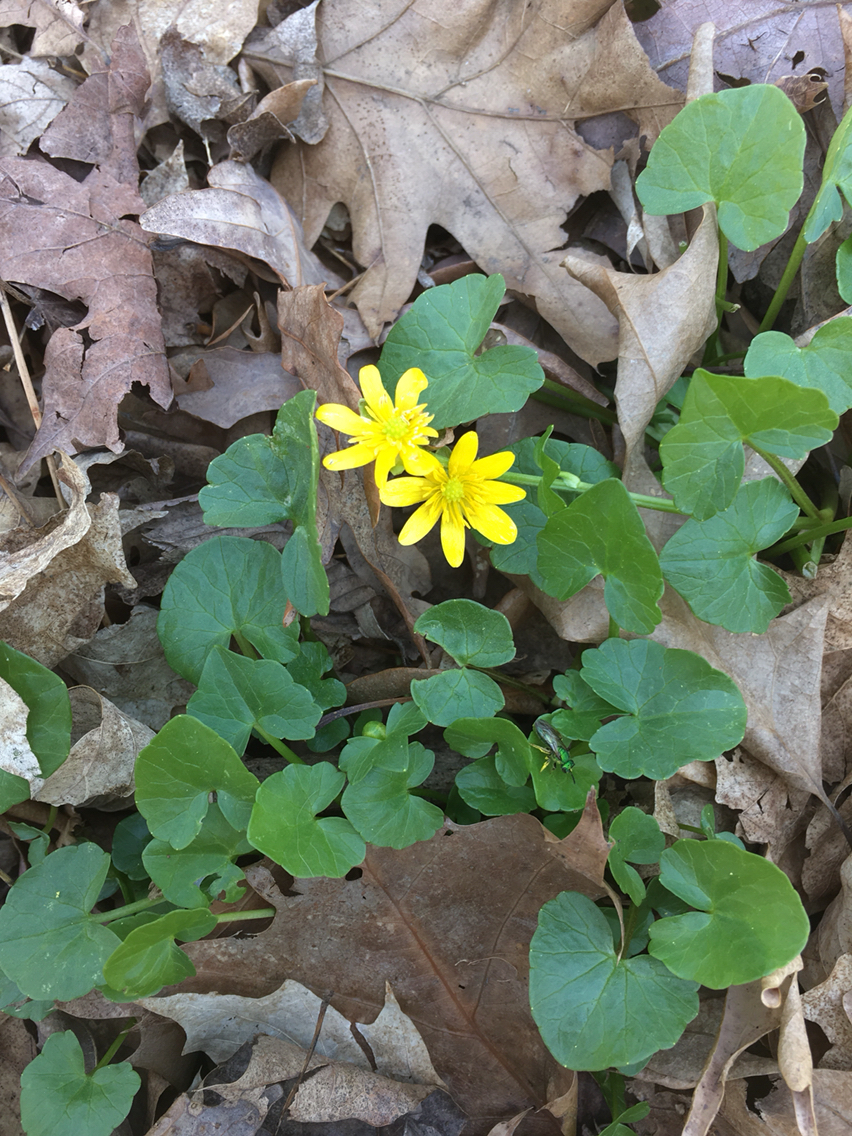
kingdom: Plantae
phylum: Tracheophyta
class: Magnoliopsida
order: Ranunculales
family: Ranunculaceae
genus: Ficaria
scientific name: Ficaria verna
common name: Lesser celandine
